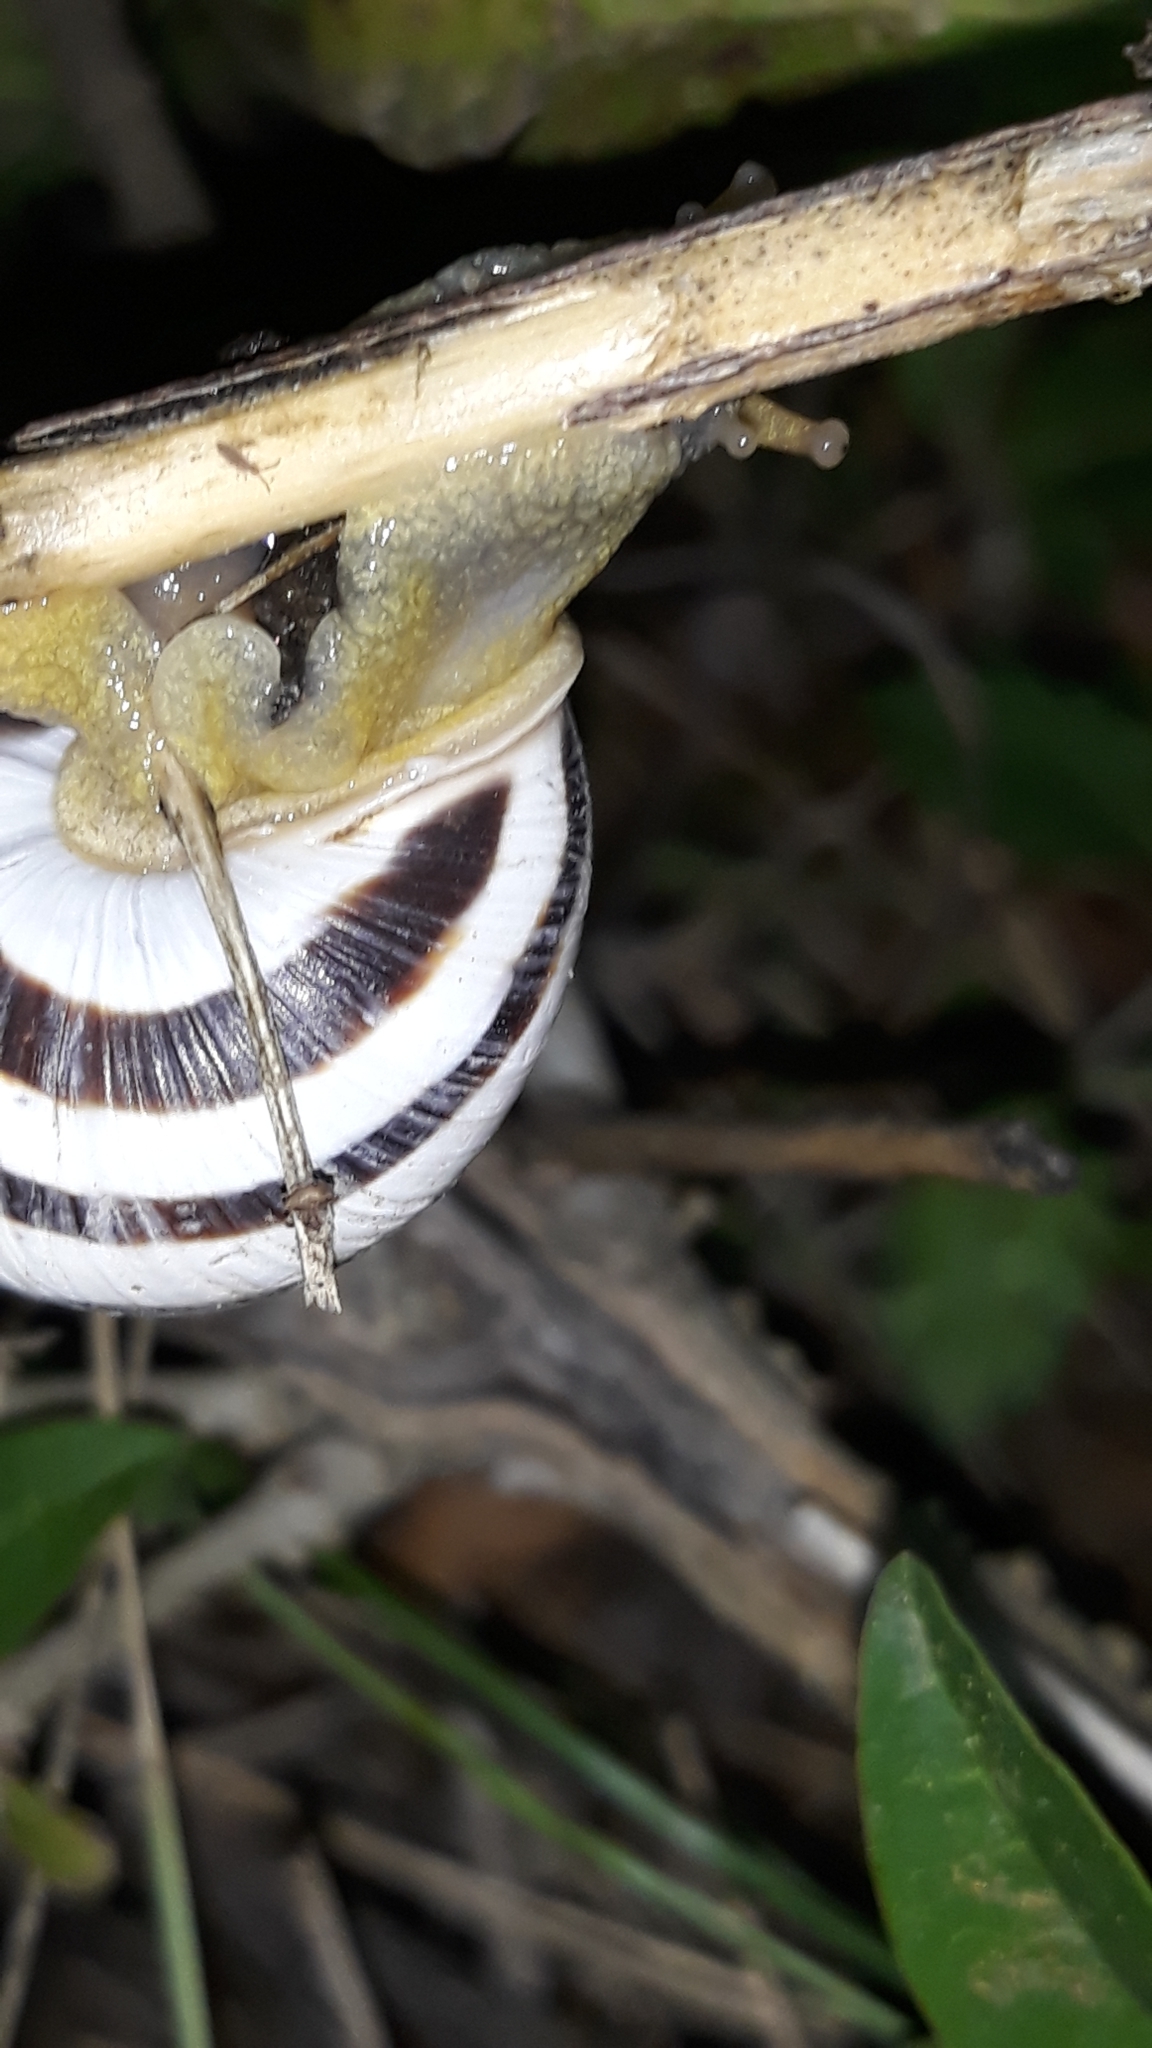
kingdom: Animalia
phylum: Mollusca
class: Gastropoda
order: Stylommatophora
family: Helicidae
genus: Caucasotachea
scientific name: Caucasotachea vindobonensis
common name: European helicid land snail
